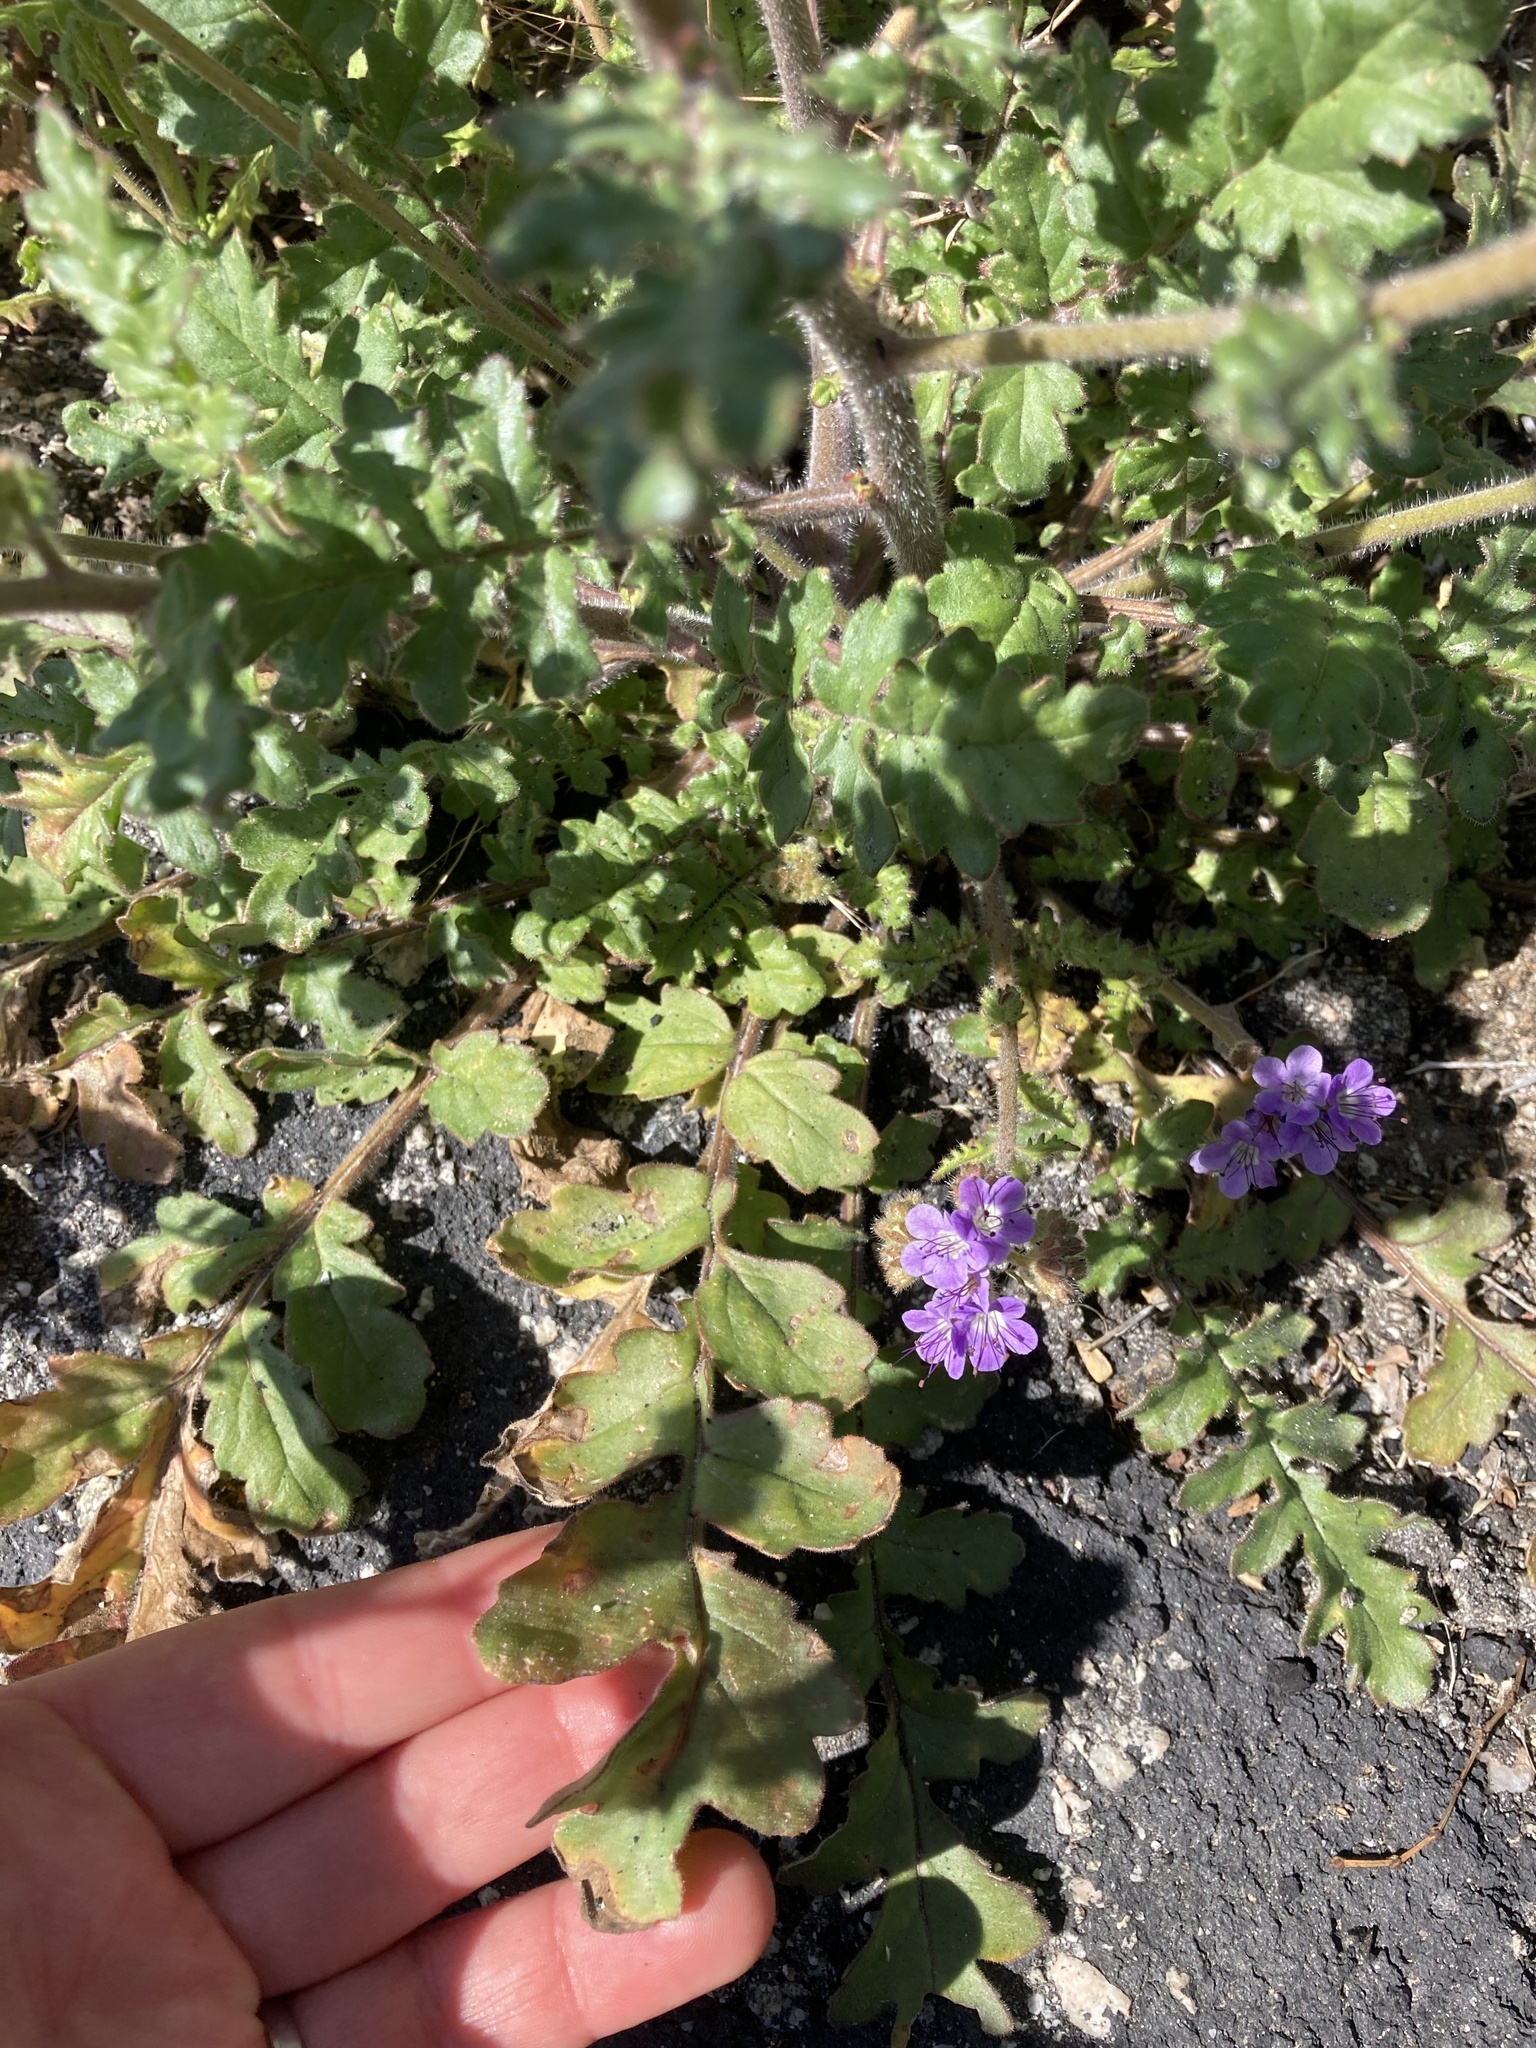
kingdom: Plantae
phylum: Tracheophyta
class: Magnoliopsida
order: Boraginales
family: Hydrophyllaceae
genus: Phacelia
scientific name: Phacelia crenulata
